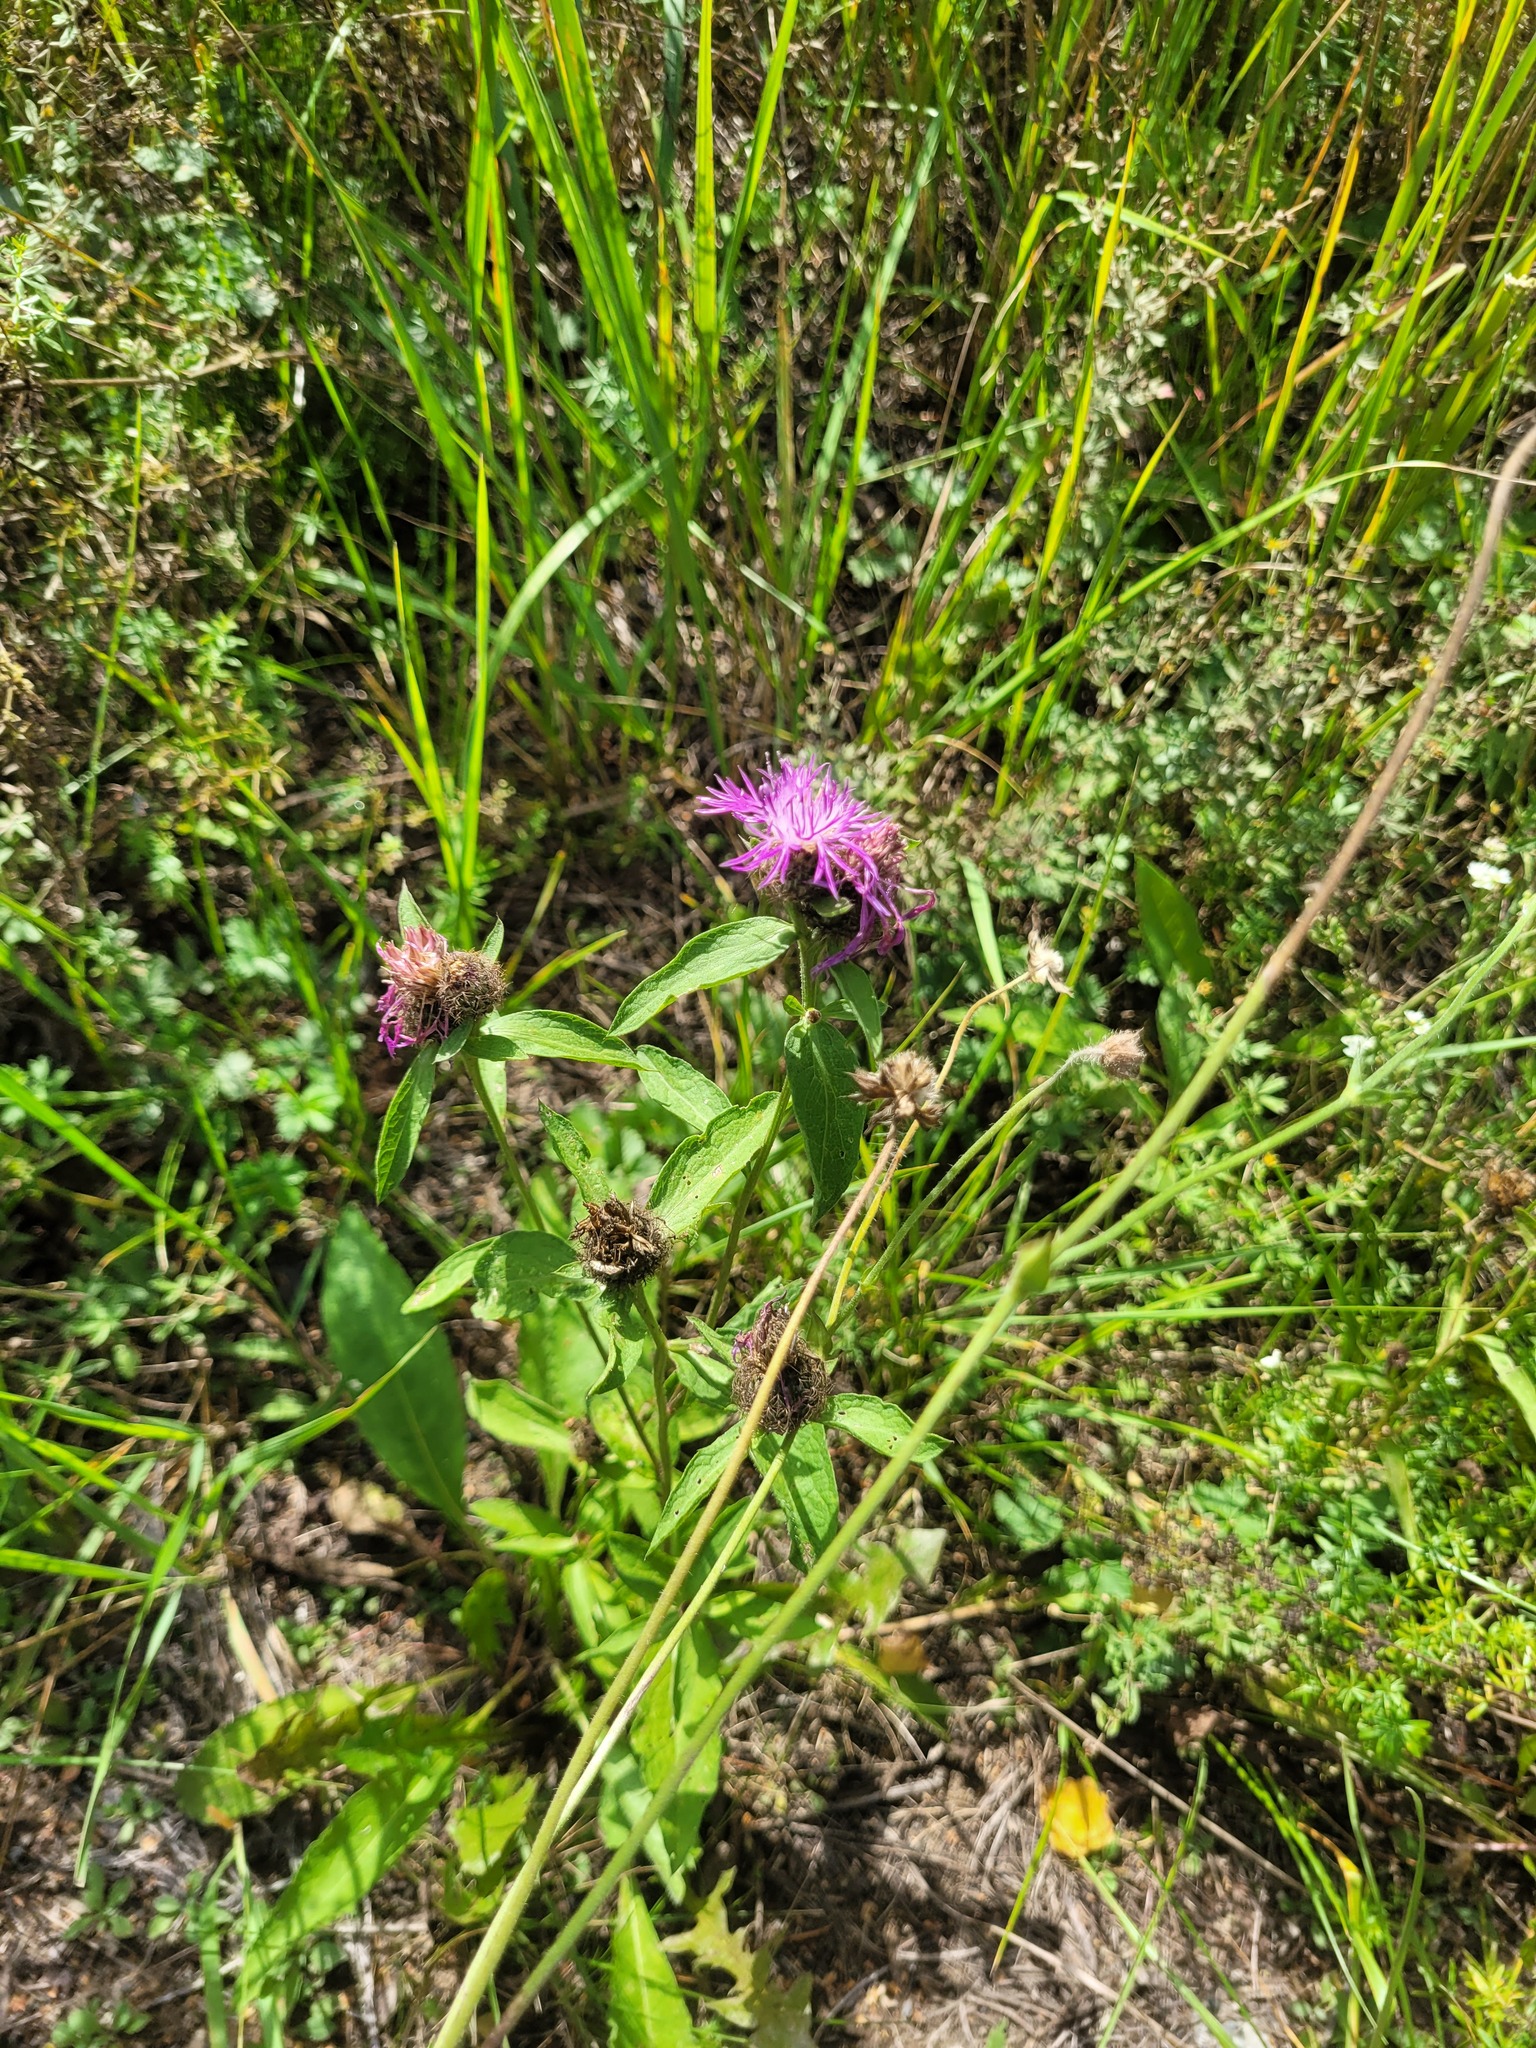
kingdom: Plantae
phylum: Tracheophyta
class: Magnoliopsida
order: Asterales
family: Asteraceae
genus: Centaurea
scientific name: Centaurea pseudophrygia
